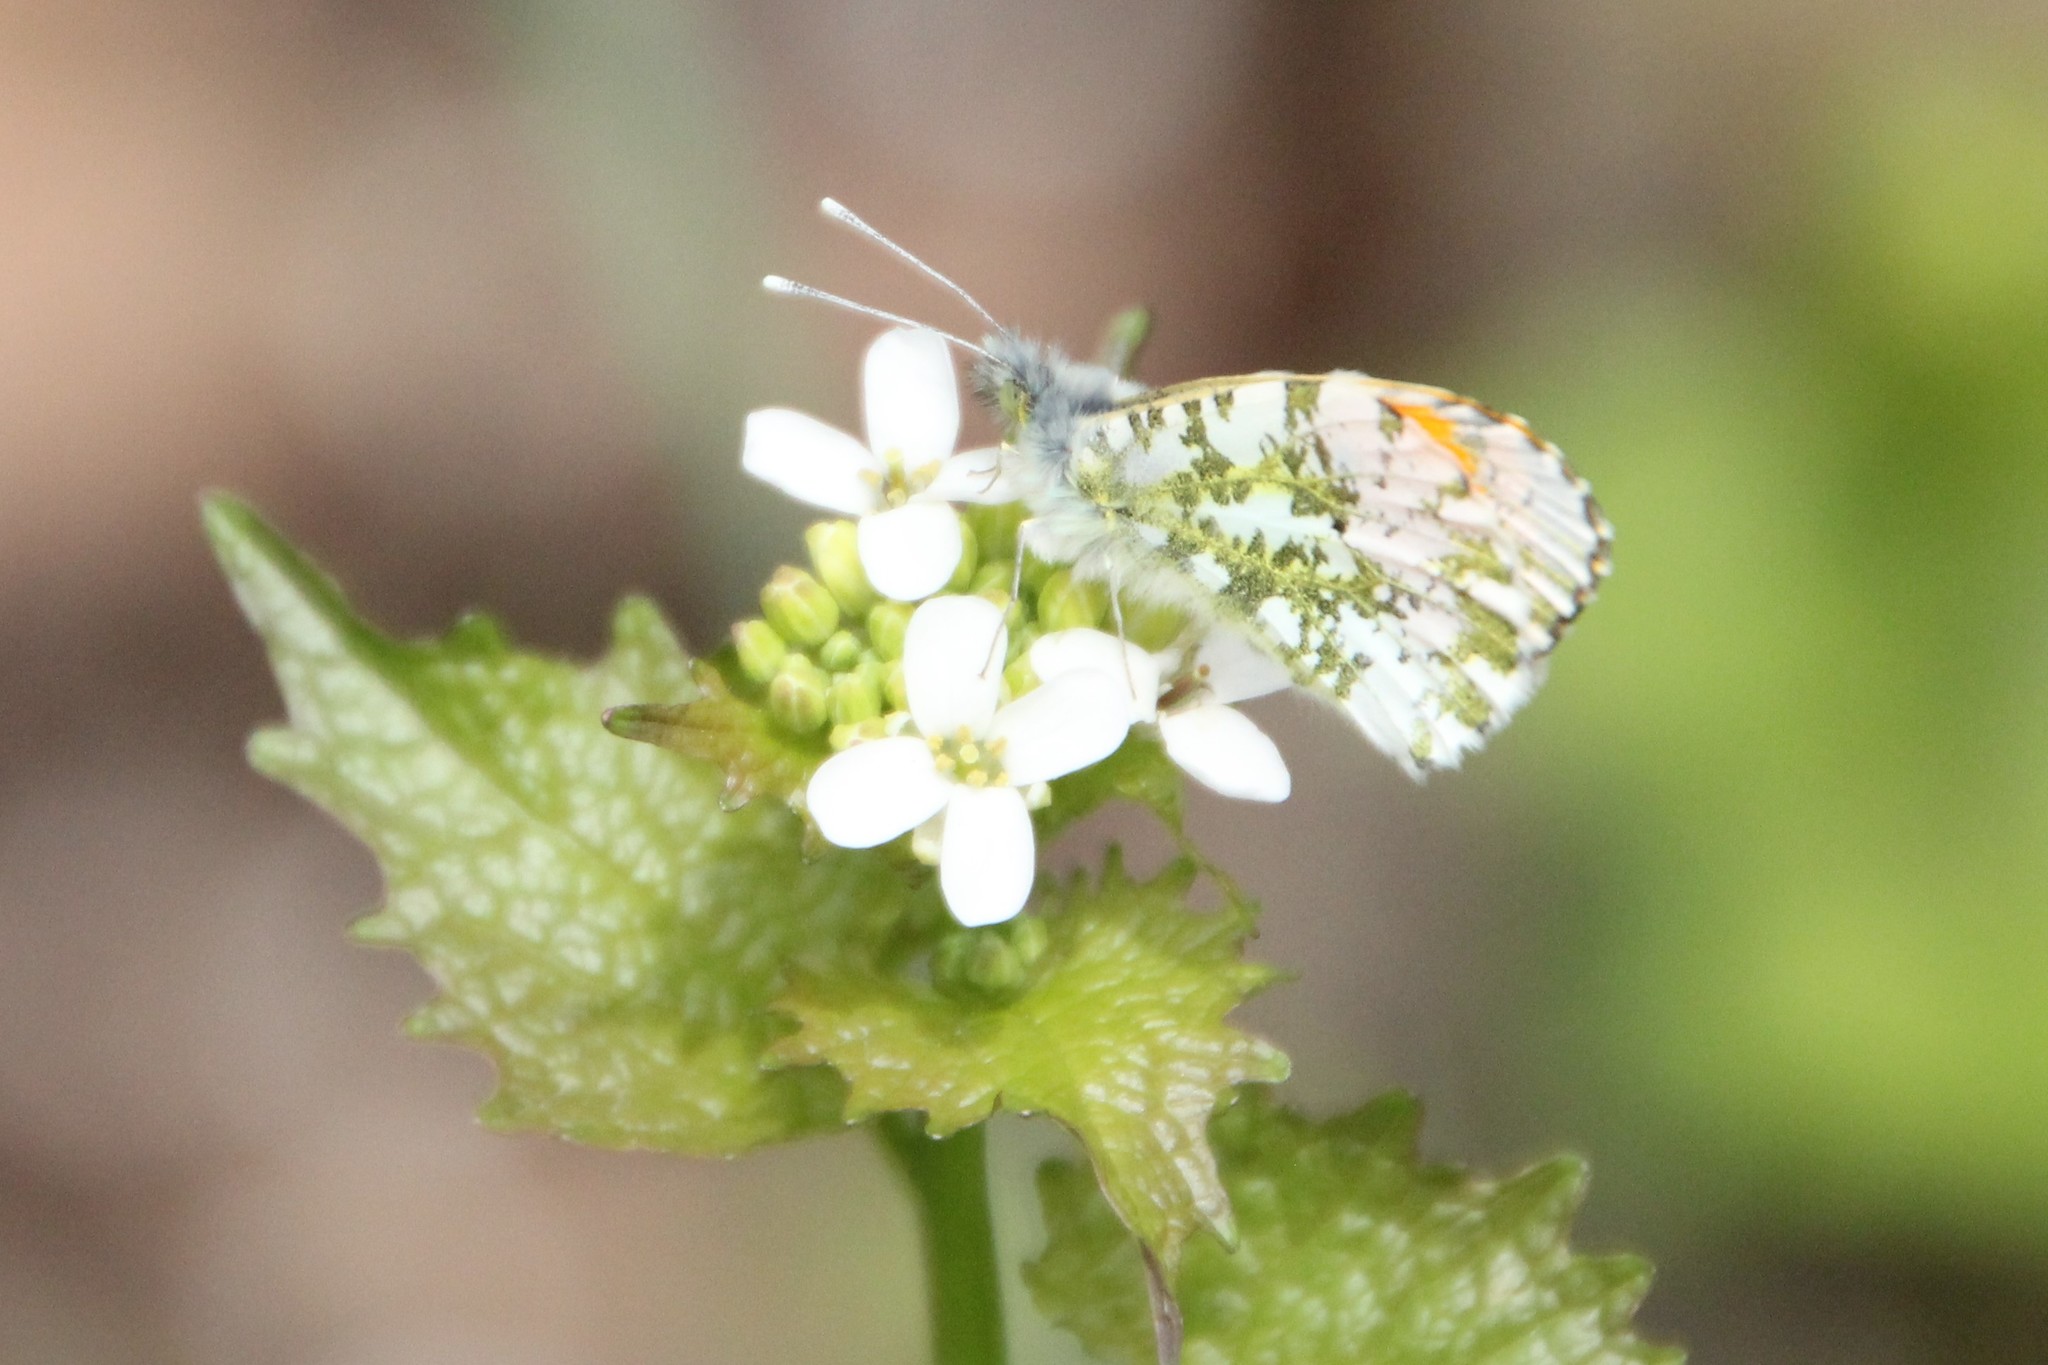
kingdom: Animalia
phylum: Arthropoda
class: Insecta
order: Lepidoptera
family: Pieridae
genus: Anthocharis
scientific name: Anthocharis cardamines
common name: Orange-tip
